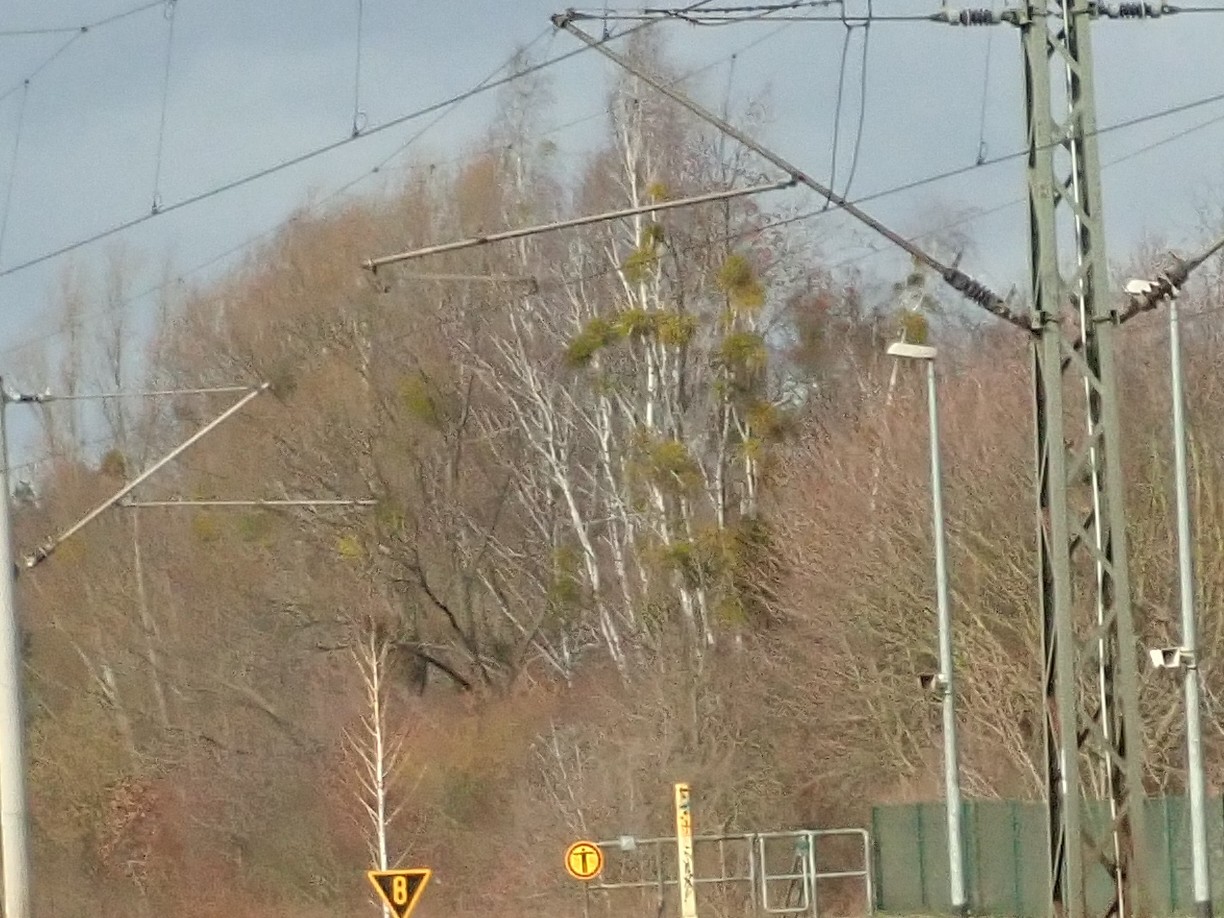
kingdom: Plantae
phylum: Tracheophyta
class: Magnoliopsida
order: Santalales
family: Viscaceae
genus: Viscum
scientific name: Viscum album
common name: Mistletoe
